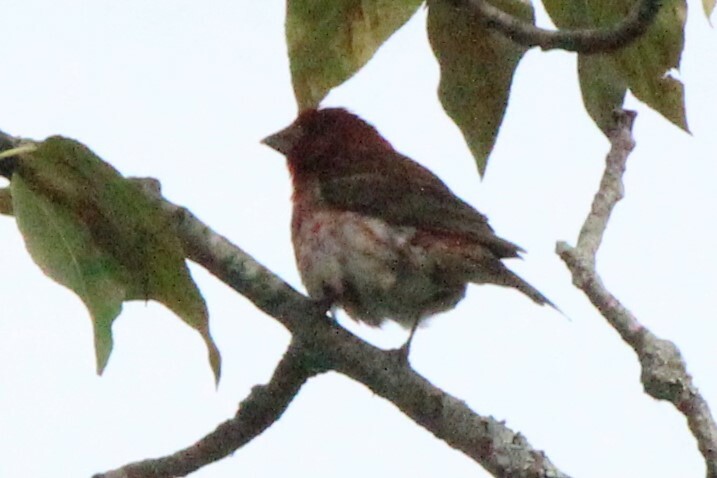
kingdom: Animalia
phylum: Chordata
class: Aves
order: Passeriformes
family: Fringillidae
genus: Haemorhous
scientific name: Haemorhous purpureus
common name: Purple finch
